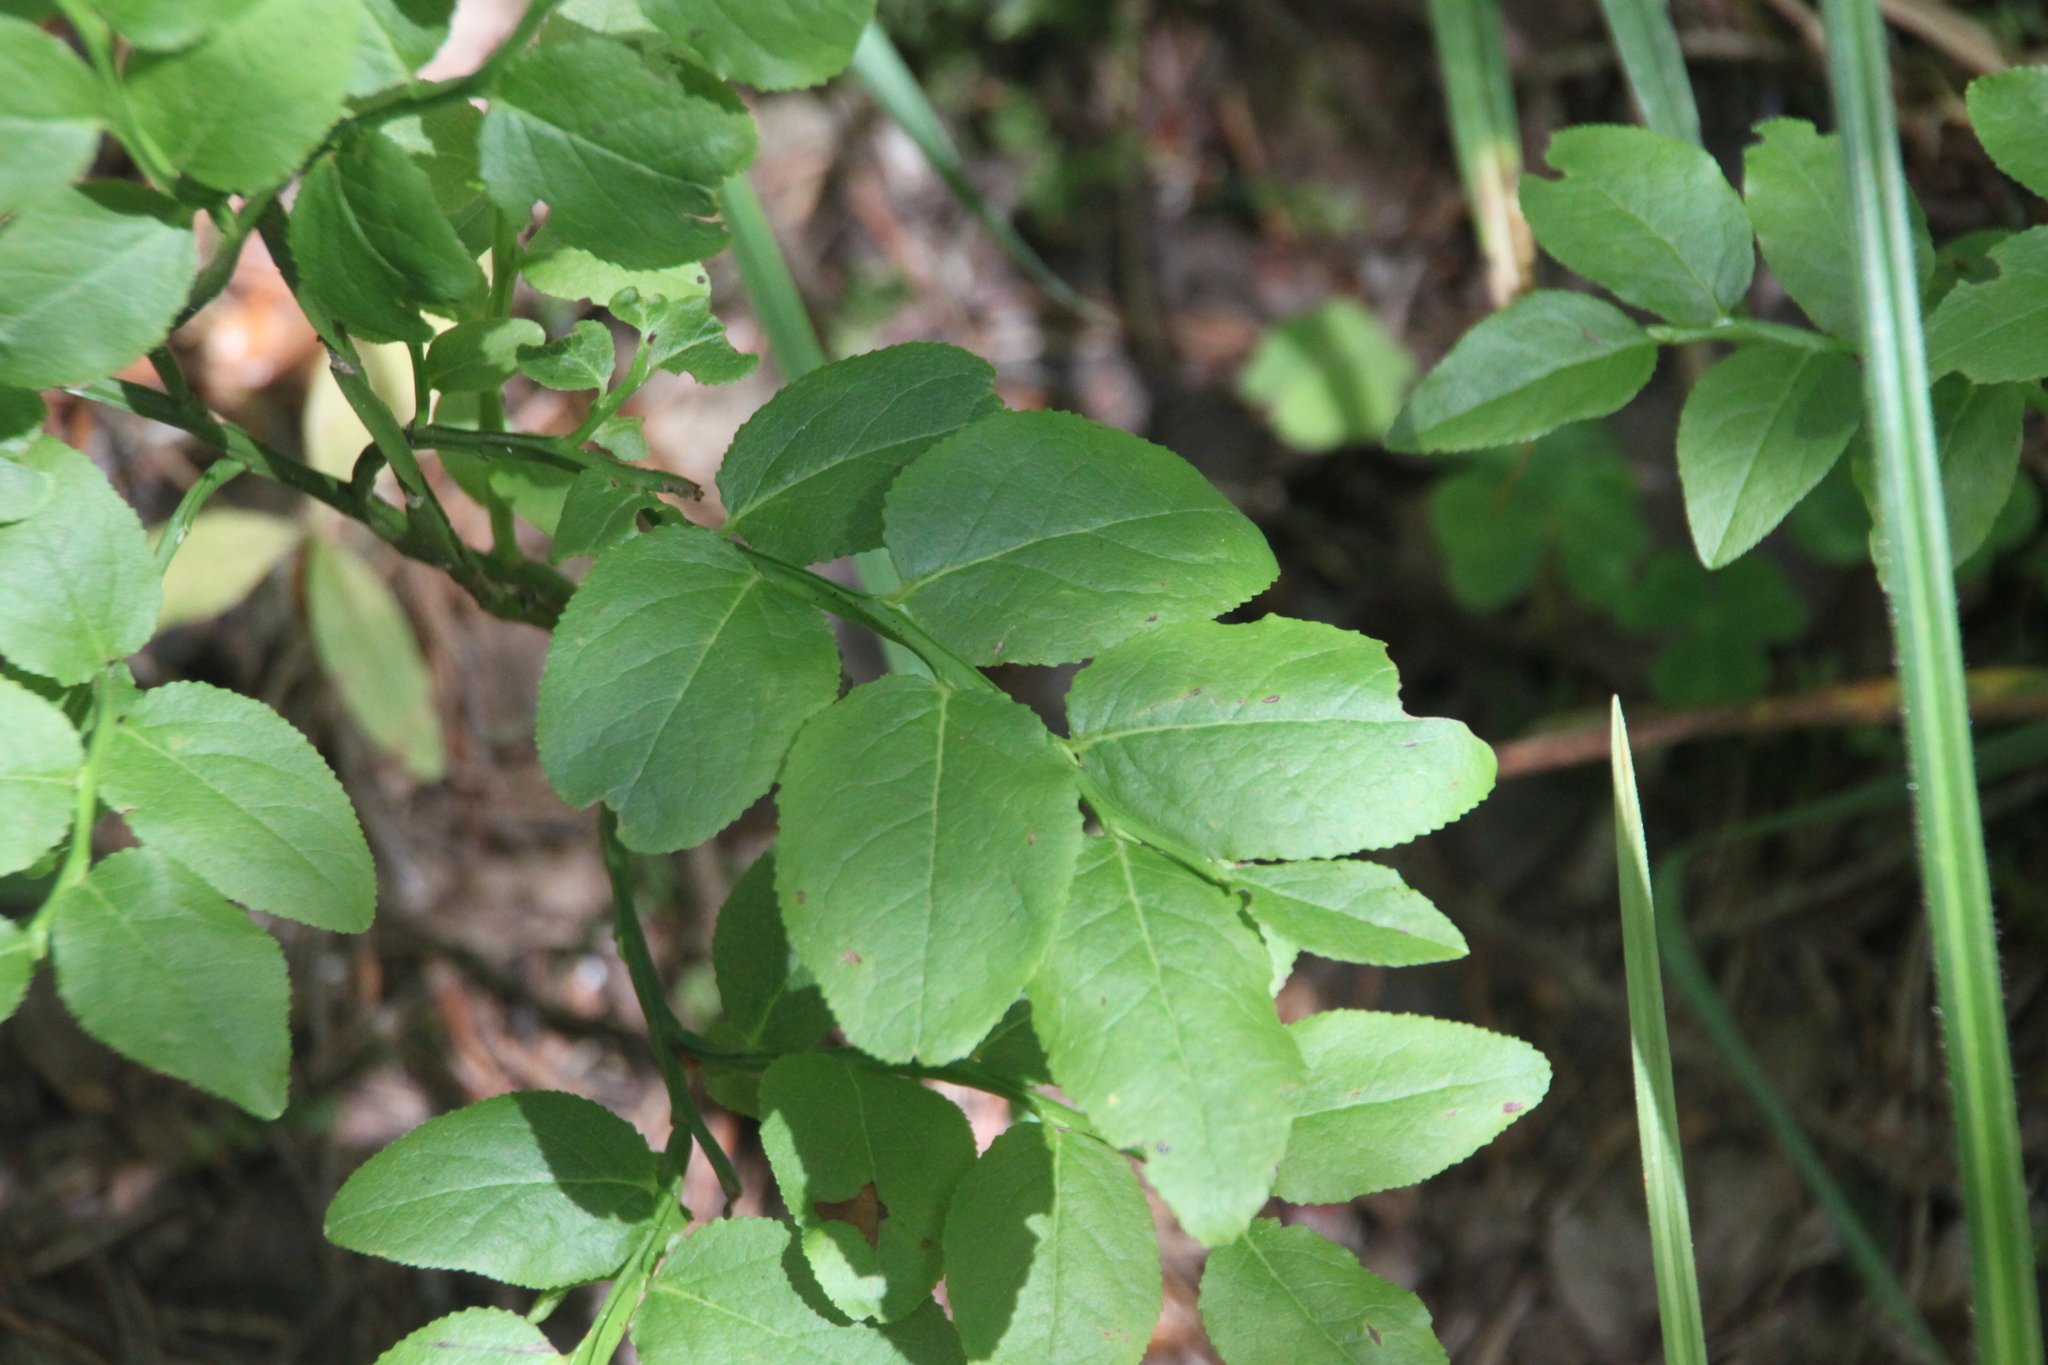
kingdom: Plantae
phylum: Tracheophyta
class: Magnoliopsida
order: Ericales
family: Ericaceae
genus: Vaccinium
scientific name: Vaccinium myrtillus
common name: Bilberry
